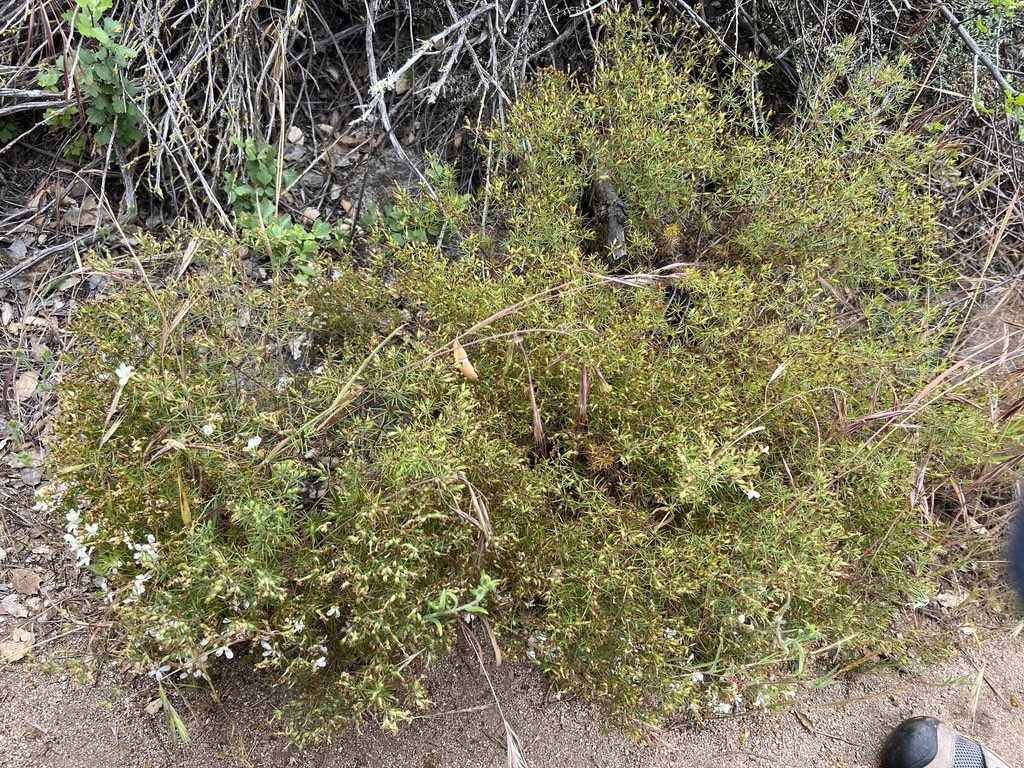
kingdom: Plantae
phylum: Tracheophyta
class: Magnoliopsida
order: Ericales
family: Polemoniaceae
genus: Leptosiphon
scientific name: Leptosiphon floribundum
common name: Many-flower linanthus
